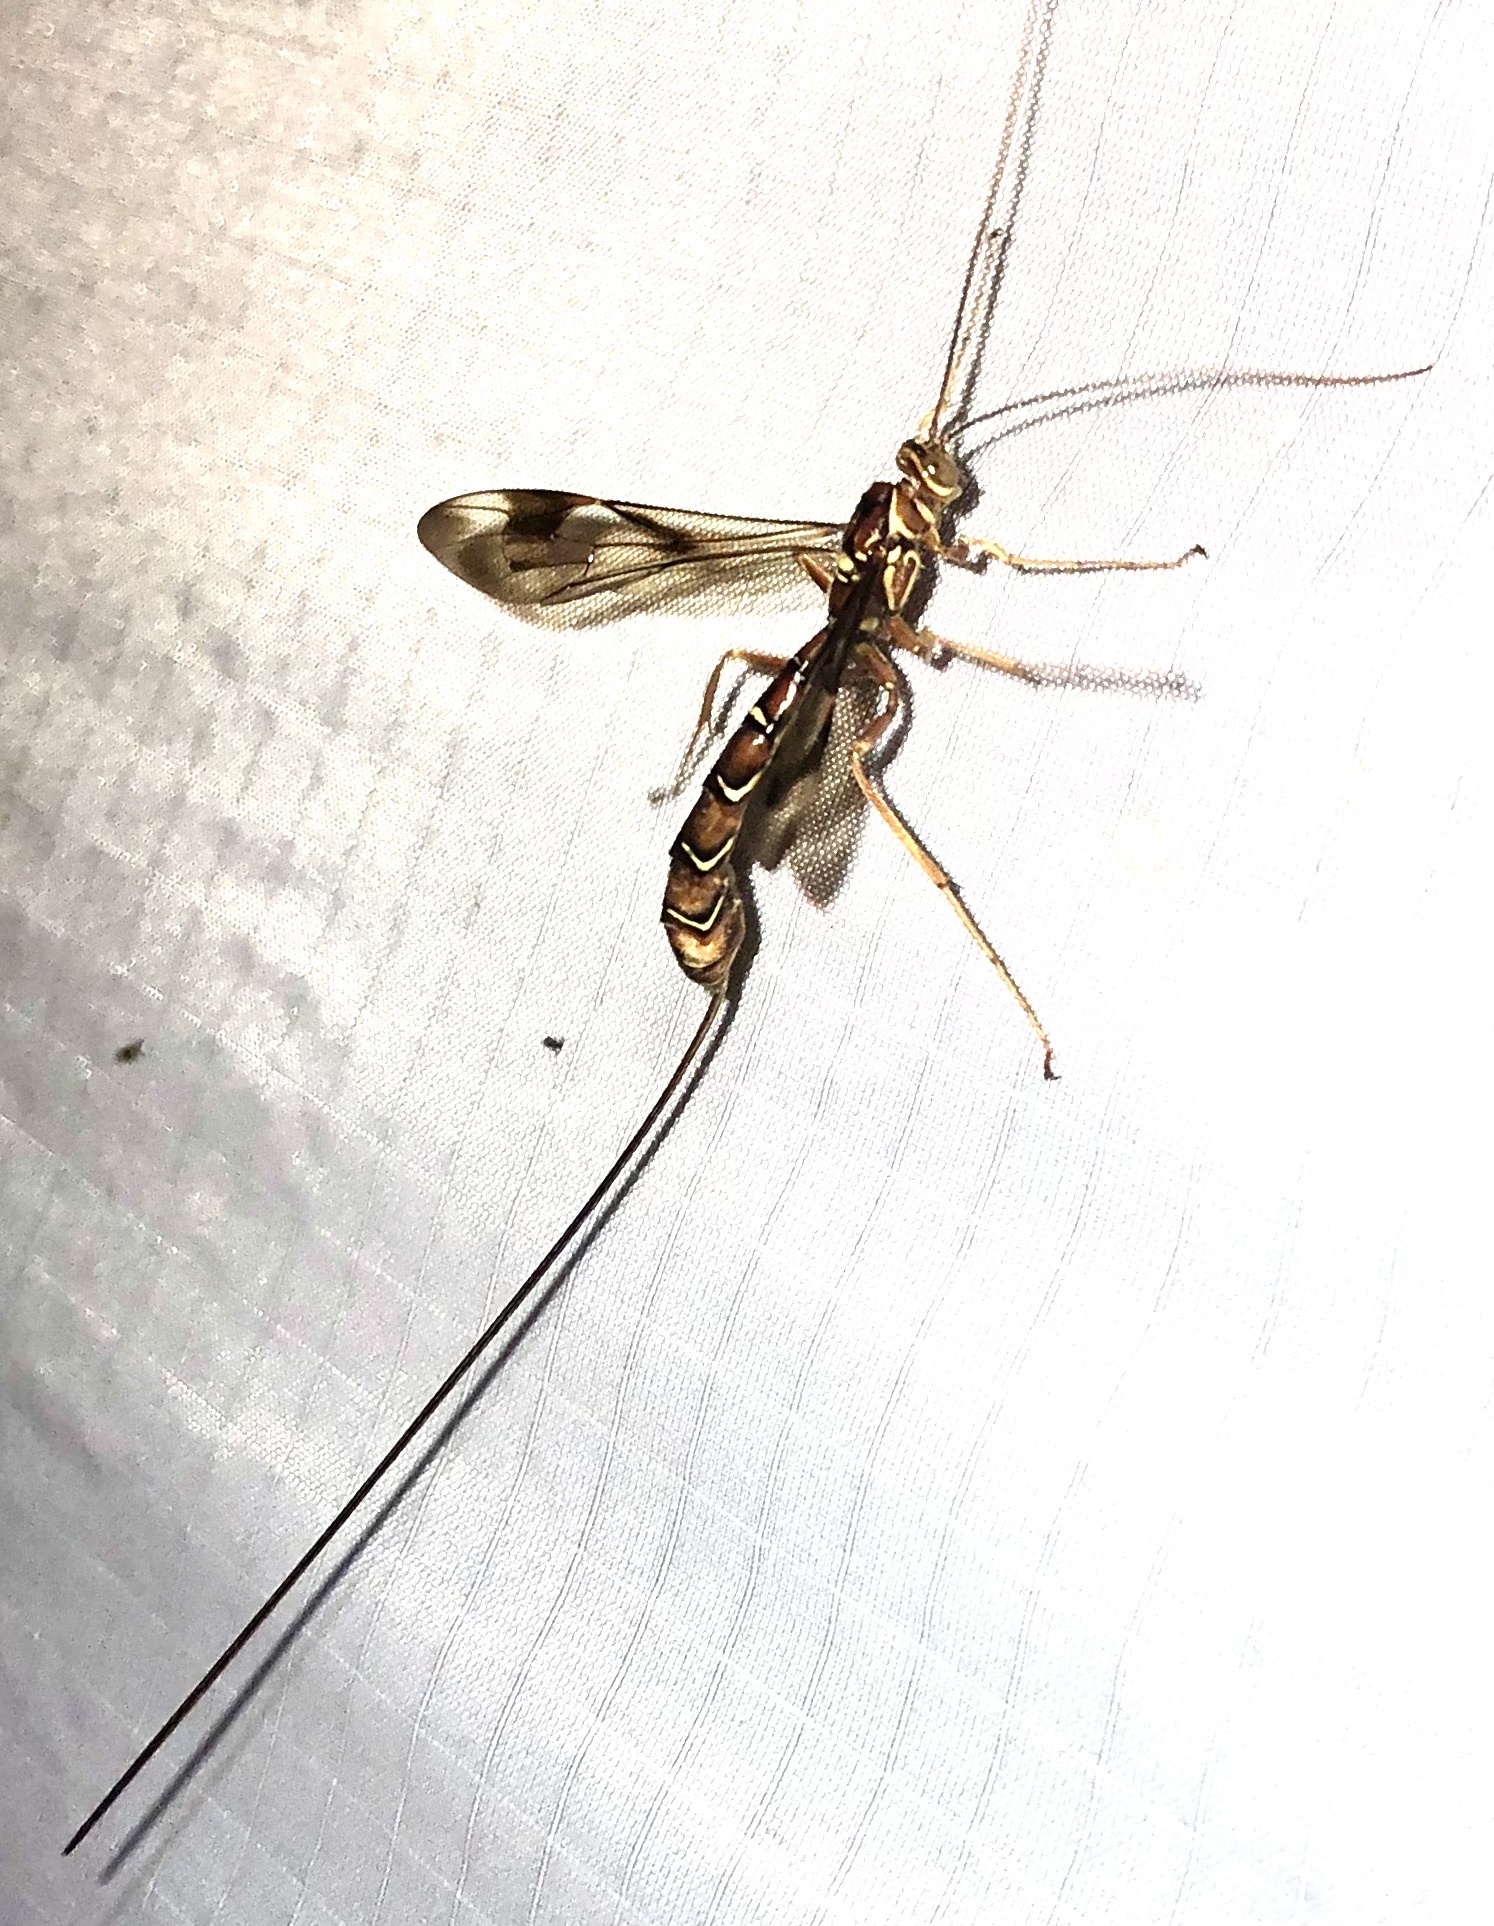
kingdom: Animalia
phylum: Arthropoda
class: Insecta
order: Hymenoptera
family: Ichneumonidae
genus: Megarhyssa
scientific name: Megarhyssa macrura
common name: Long-tailed giant ichneumonid wasp
